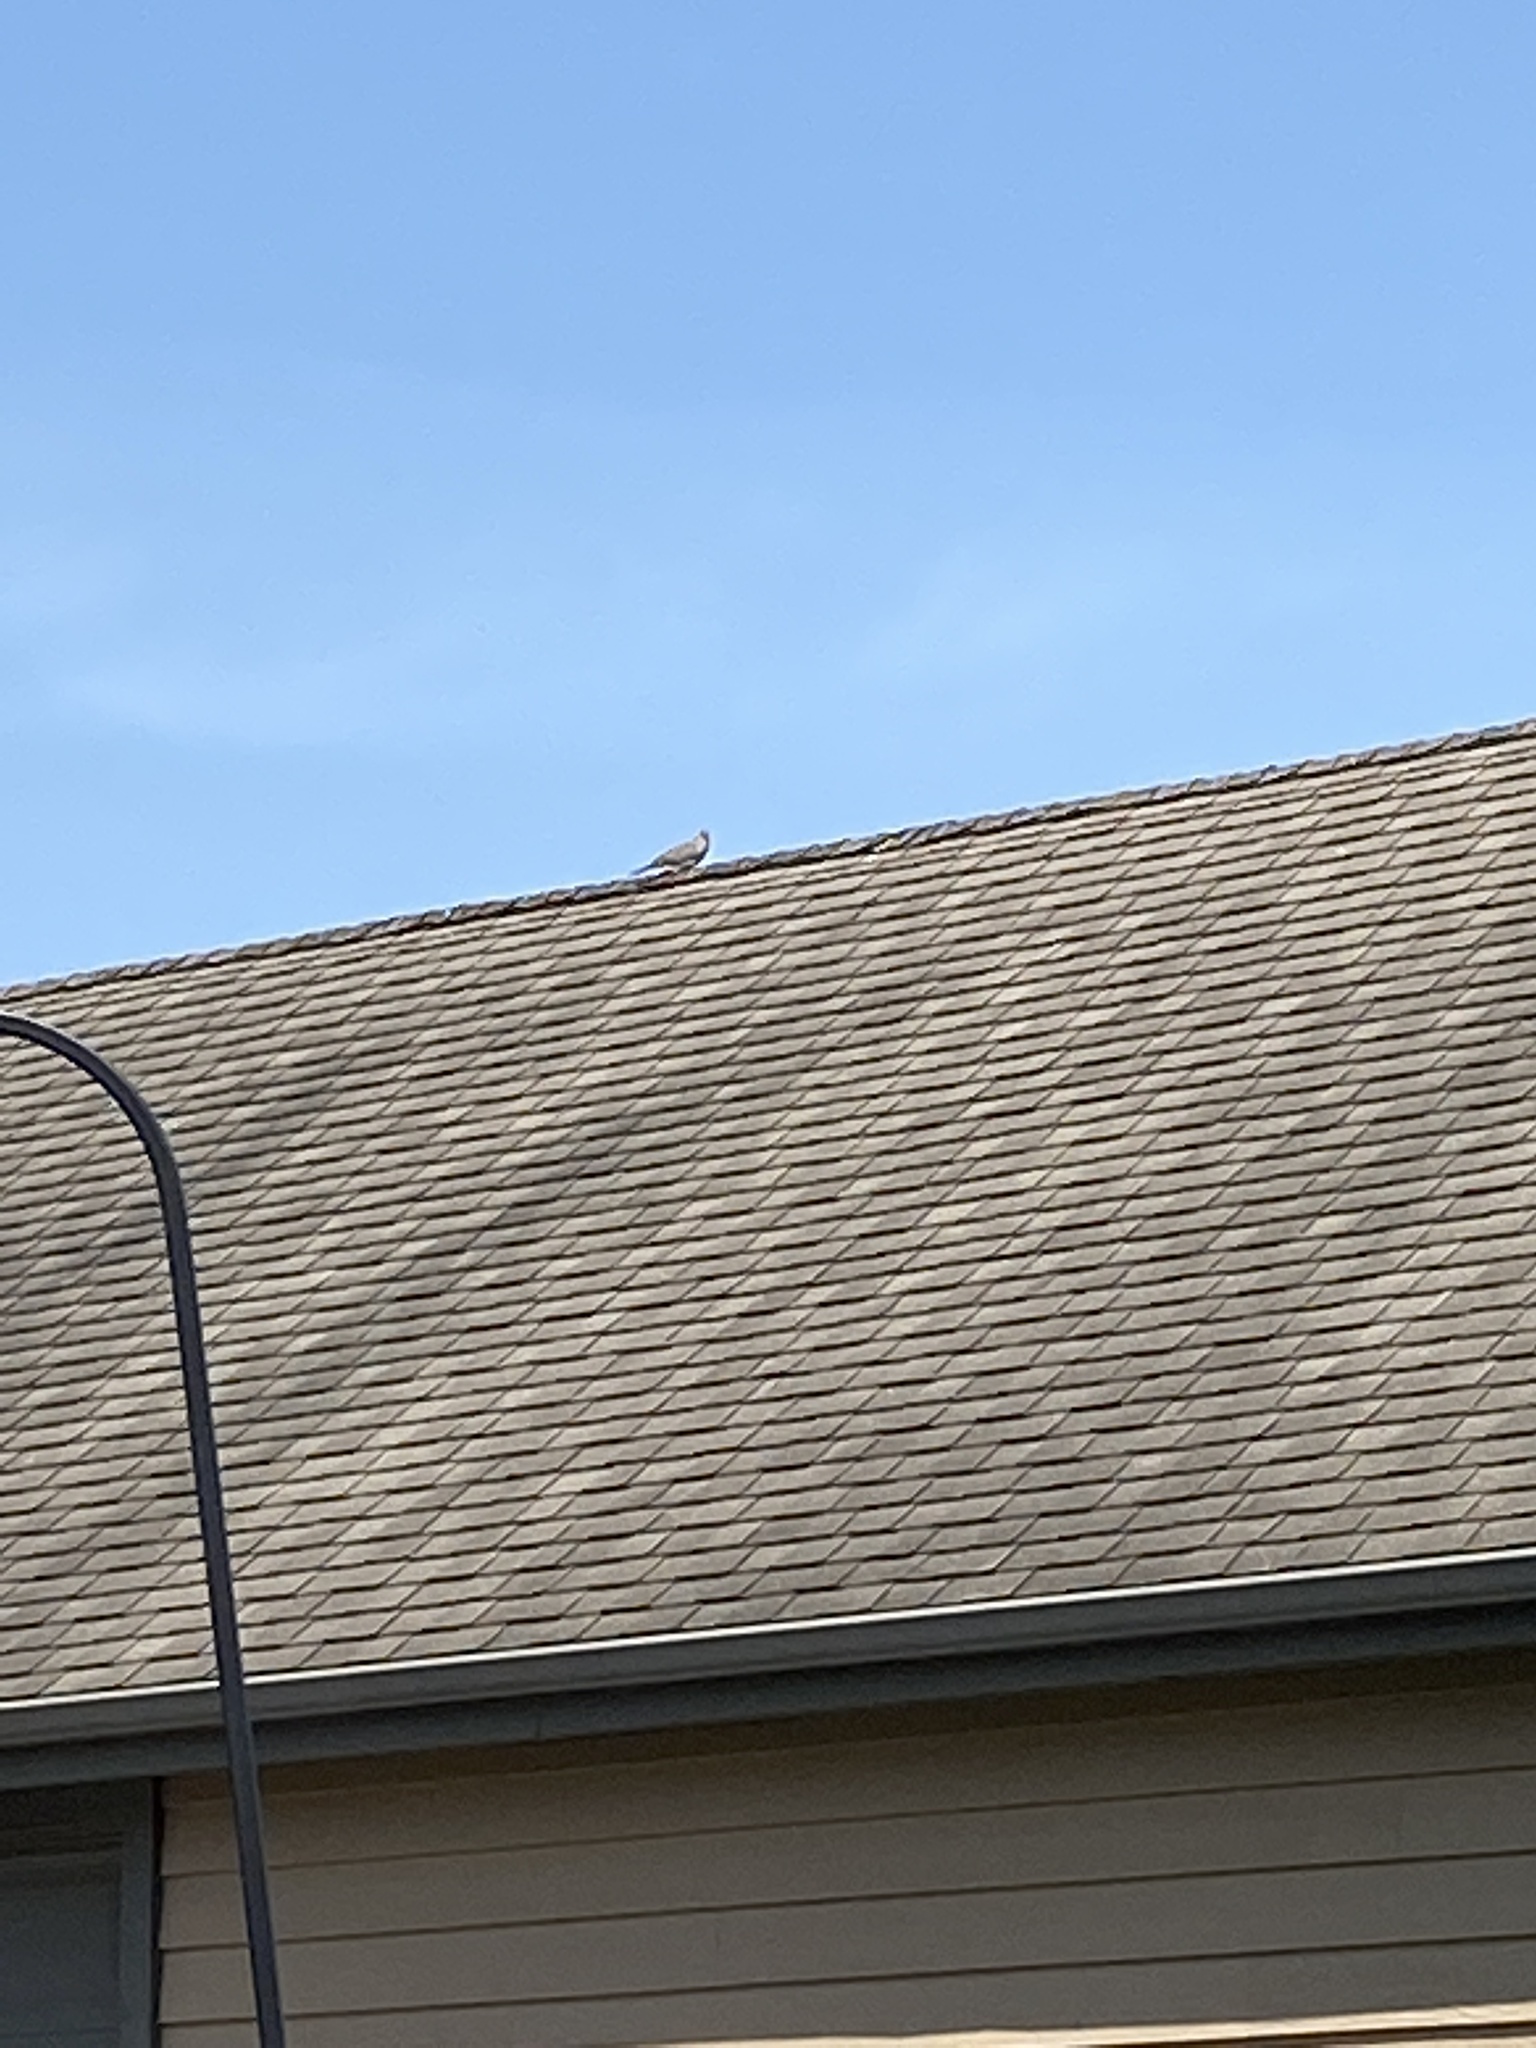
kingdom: Animalia
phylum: Chordata
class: Aves
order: Columbiformes
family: Columbidae
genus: Zenaida
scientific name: Zenaida macroura
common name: Mourning dove
